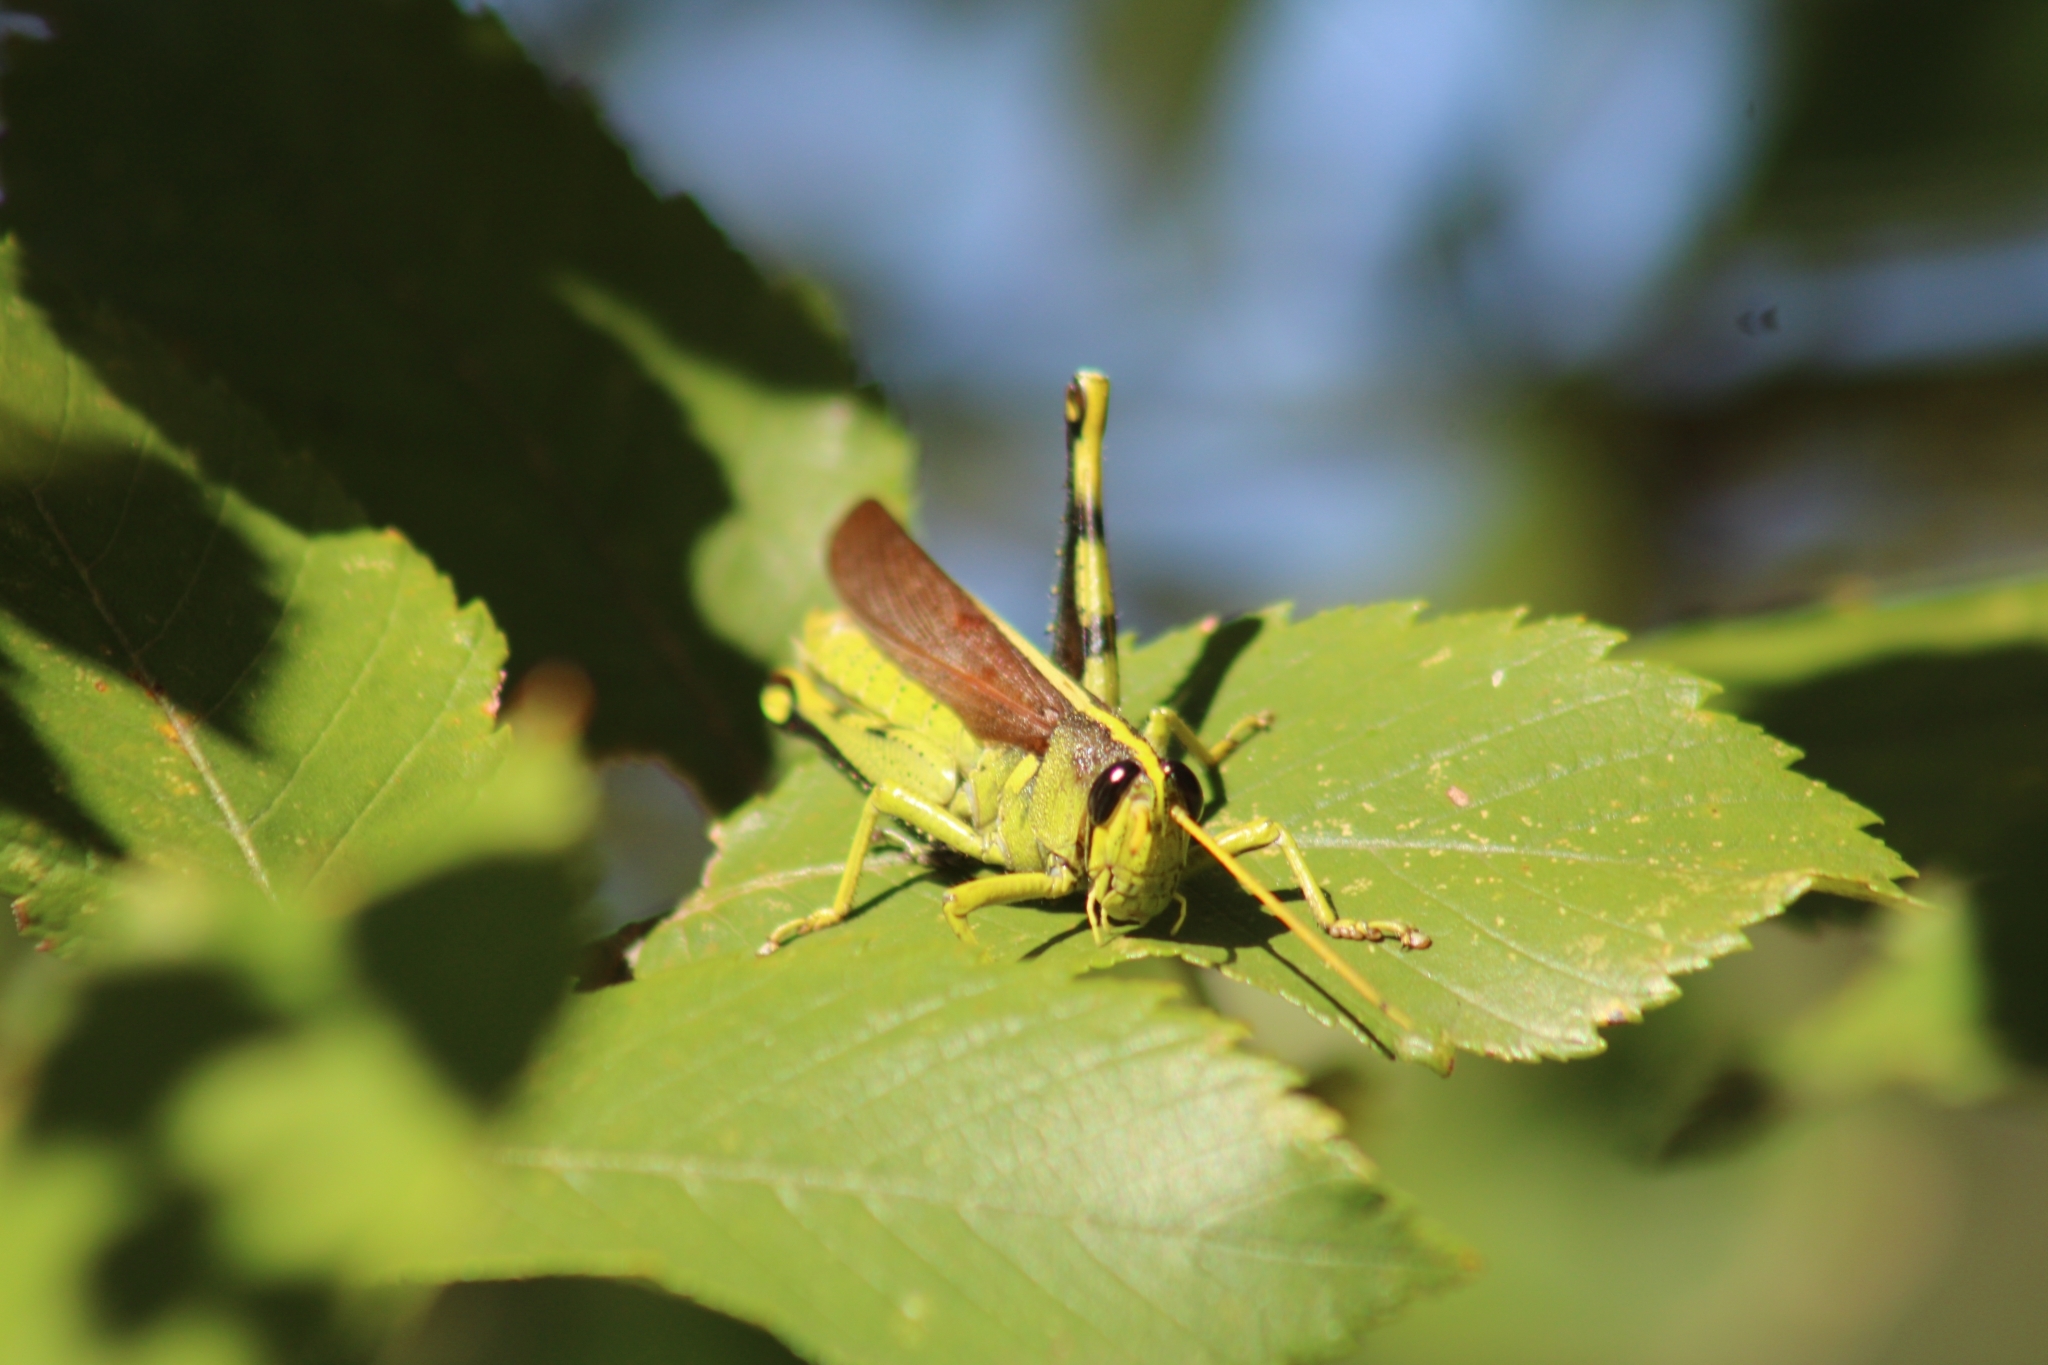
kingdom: Animalia
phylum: Arthropoda
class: Insecta
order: Orthoptera
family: Acrididae
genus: Schistocerca
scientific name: Schistocerca obscura
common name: Obscure bird grasshopper
